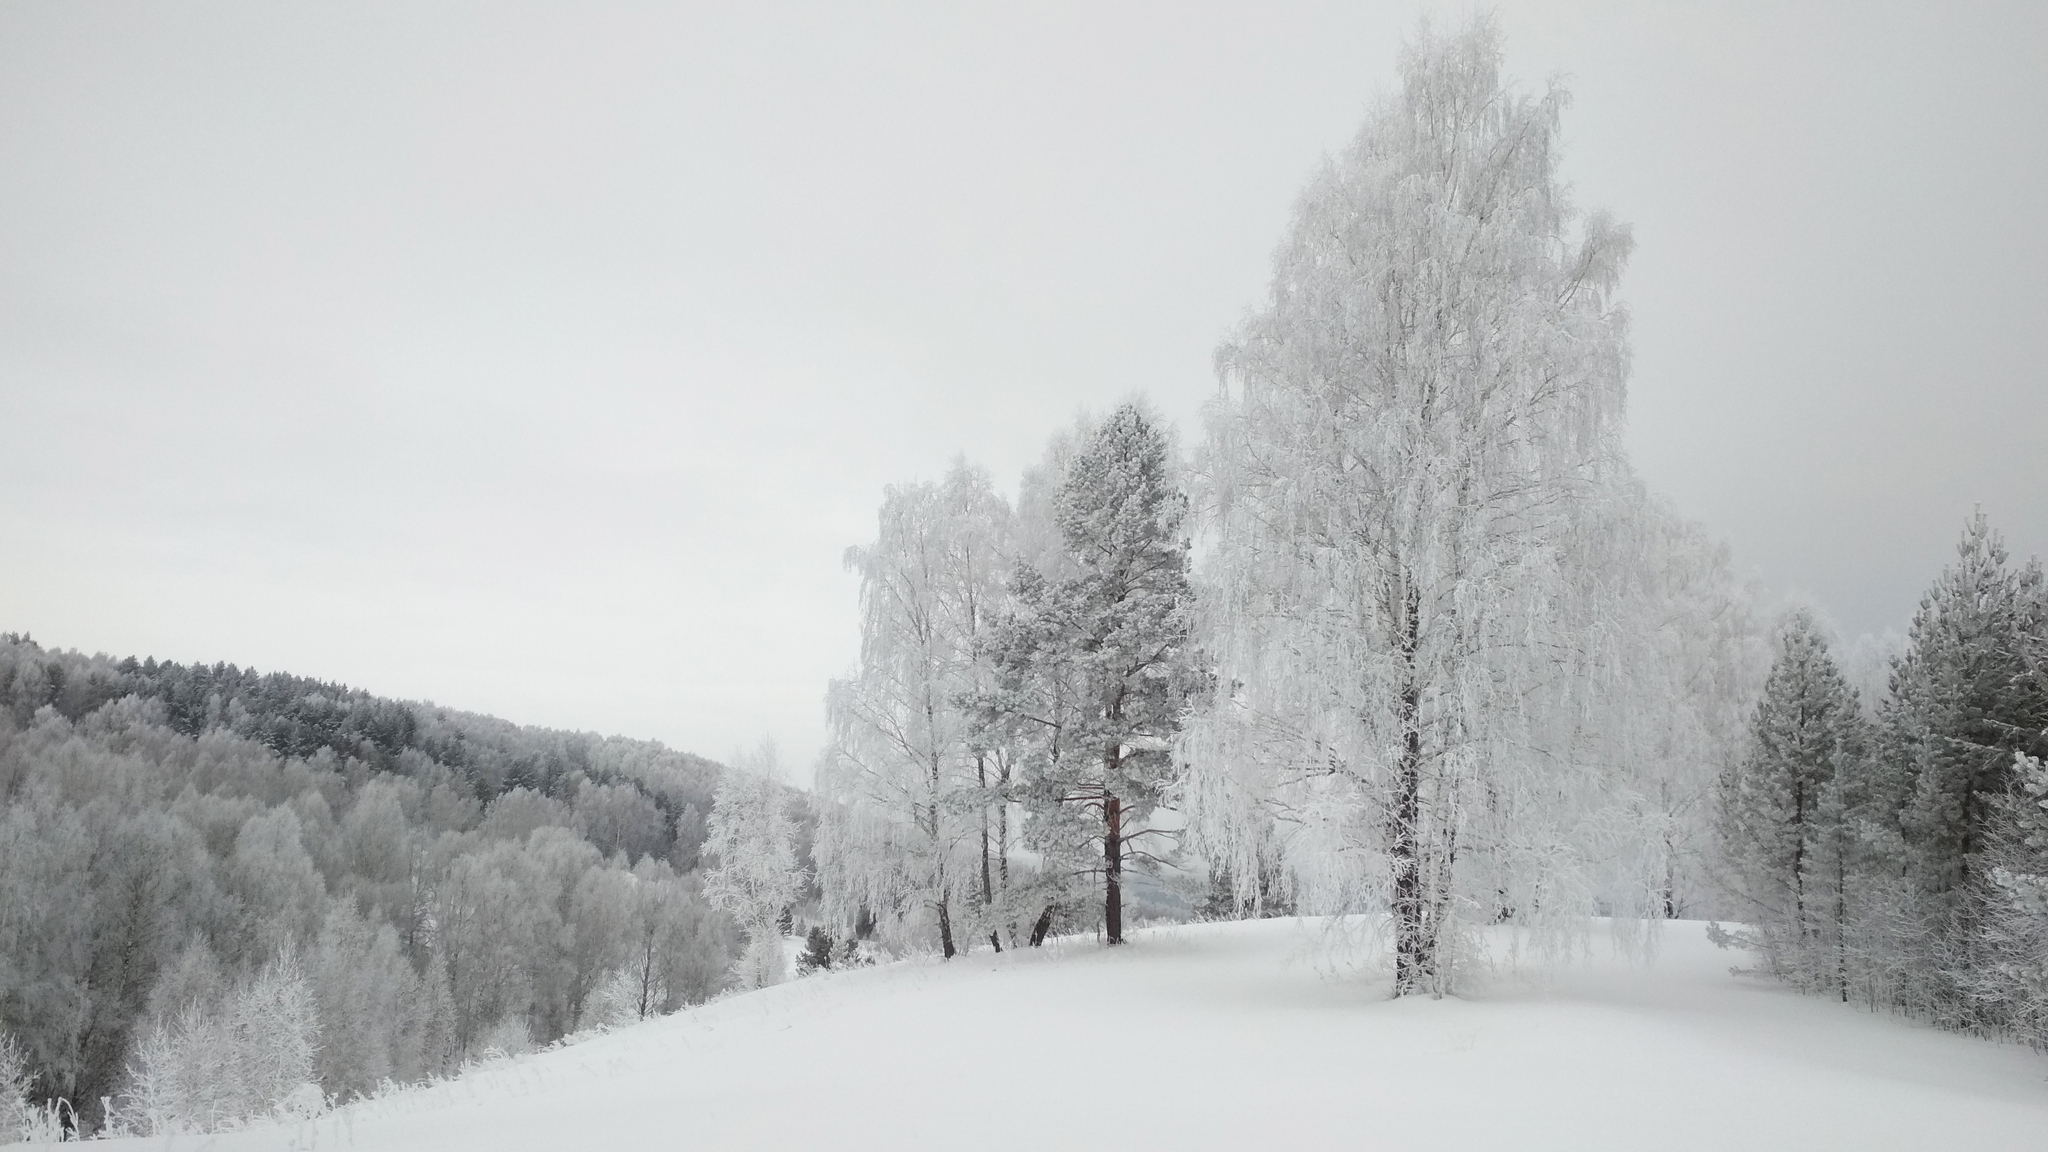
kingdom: Plantae
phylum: Tracheophyta
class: Magnoliopsida
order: Fagales
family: Betulaceae
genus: Betula
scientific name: Betula pendula
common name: Silver birch
